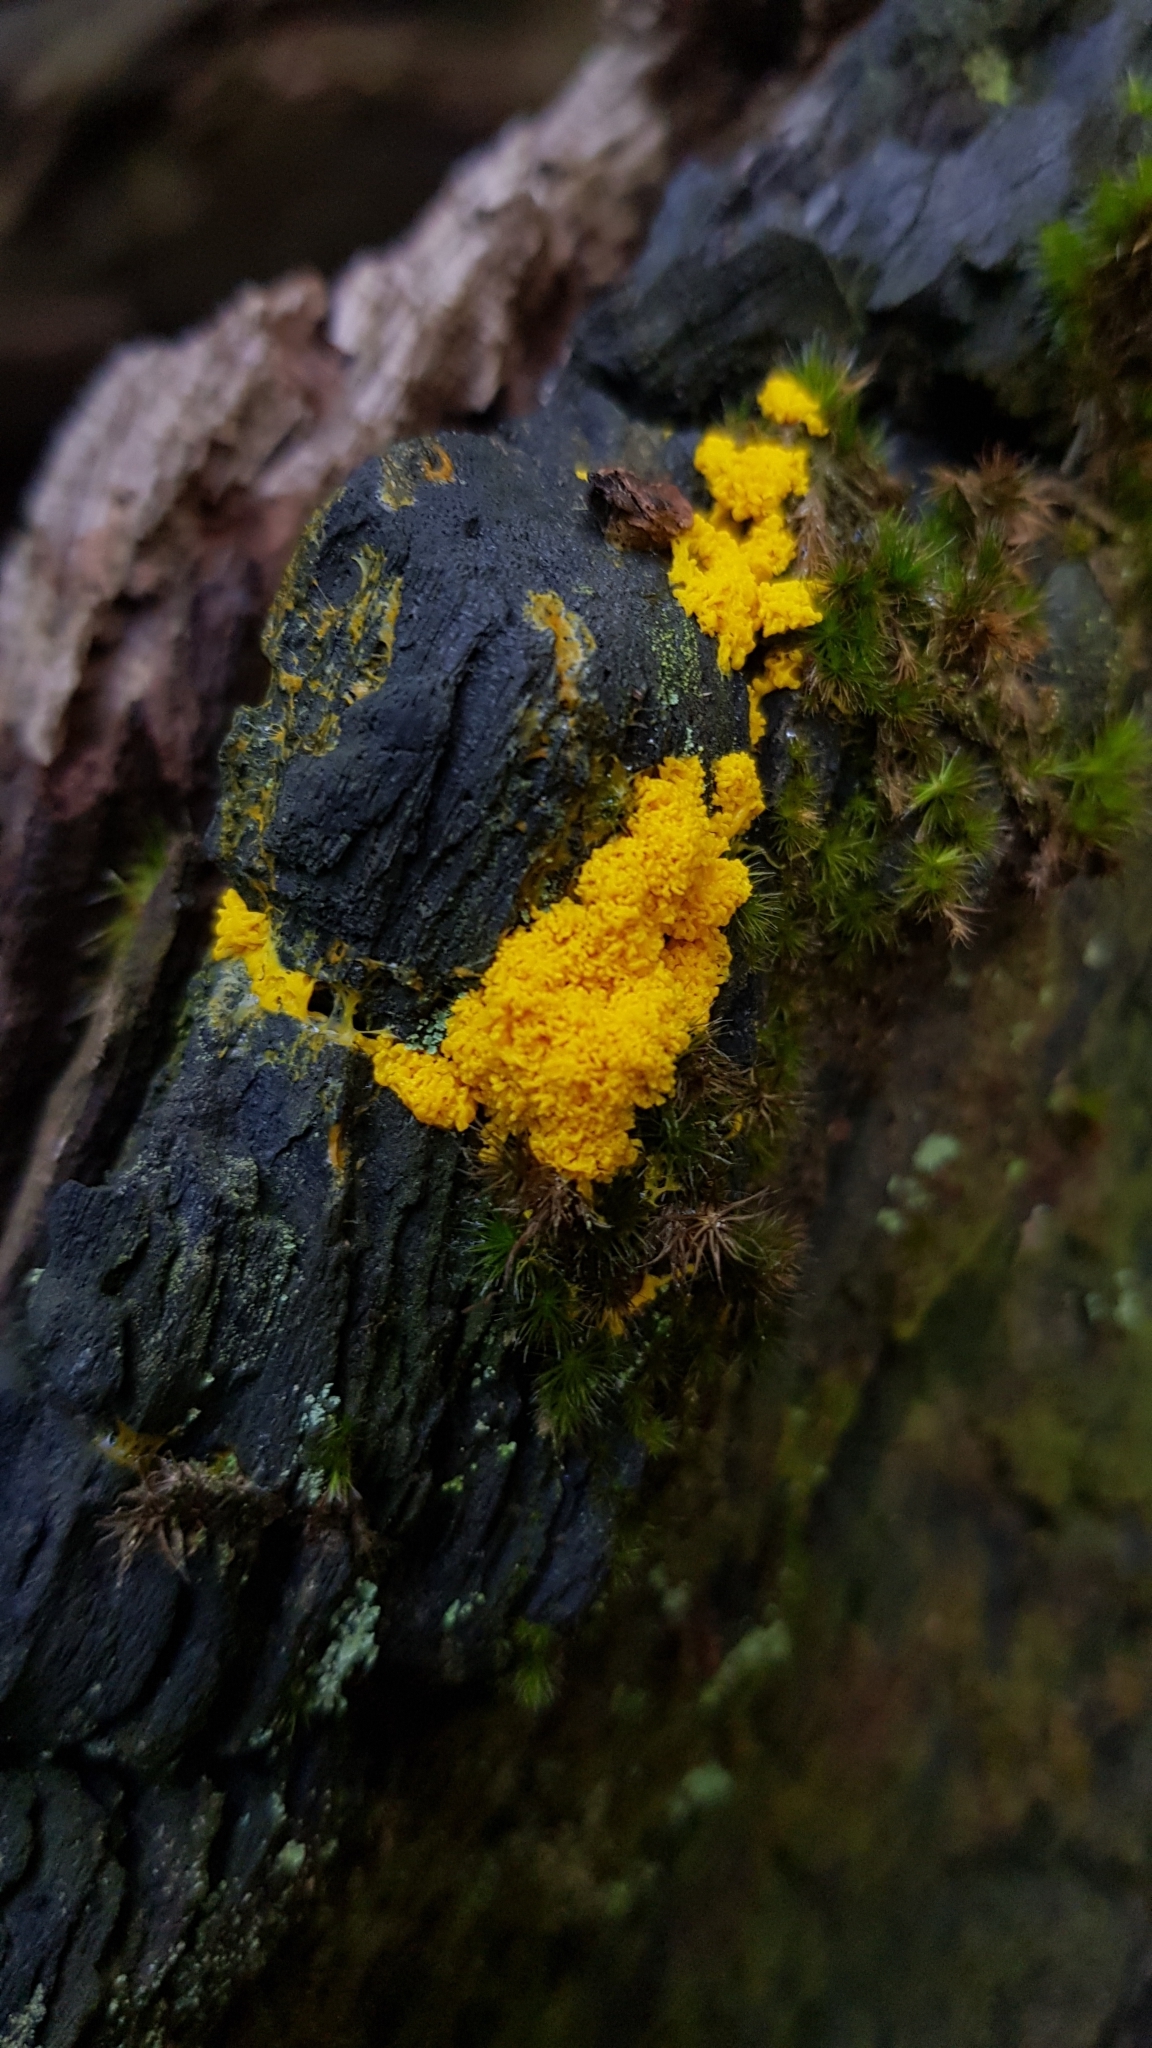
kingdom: Protozoa
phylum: Mycetozoa
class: Myxomycetes
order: Physarales
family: Physaraceae
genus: Fuligo
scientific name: Fuligo septica
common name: Dog vomit slime mold
